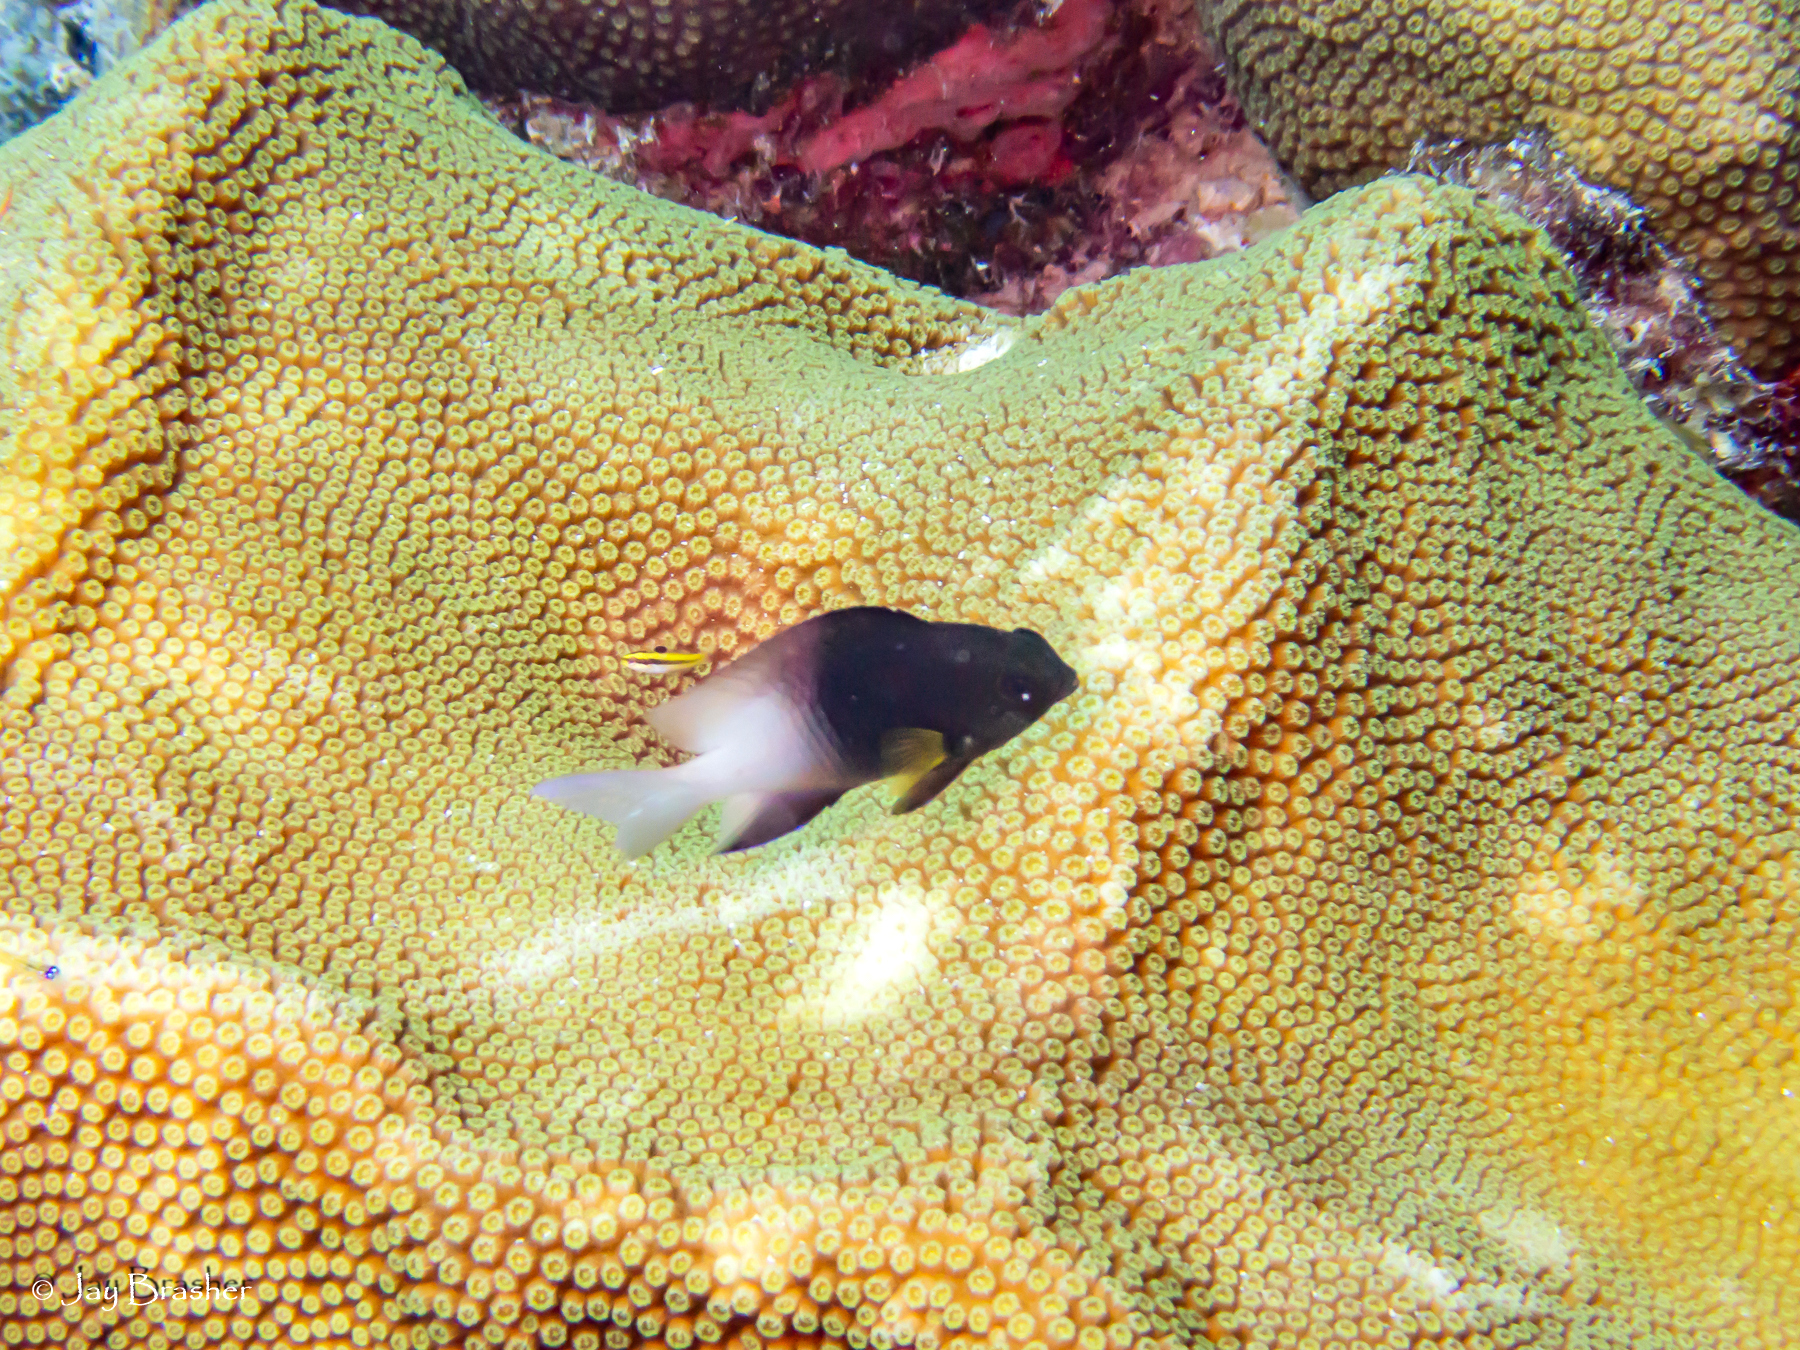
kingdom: Animalia
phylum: Chordata
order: Perciformes
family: Pomacentridae
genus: Stegastes
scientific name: Stegastes partitus
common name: Bicolor damselfish
